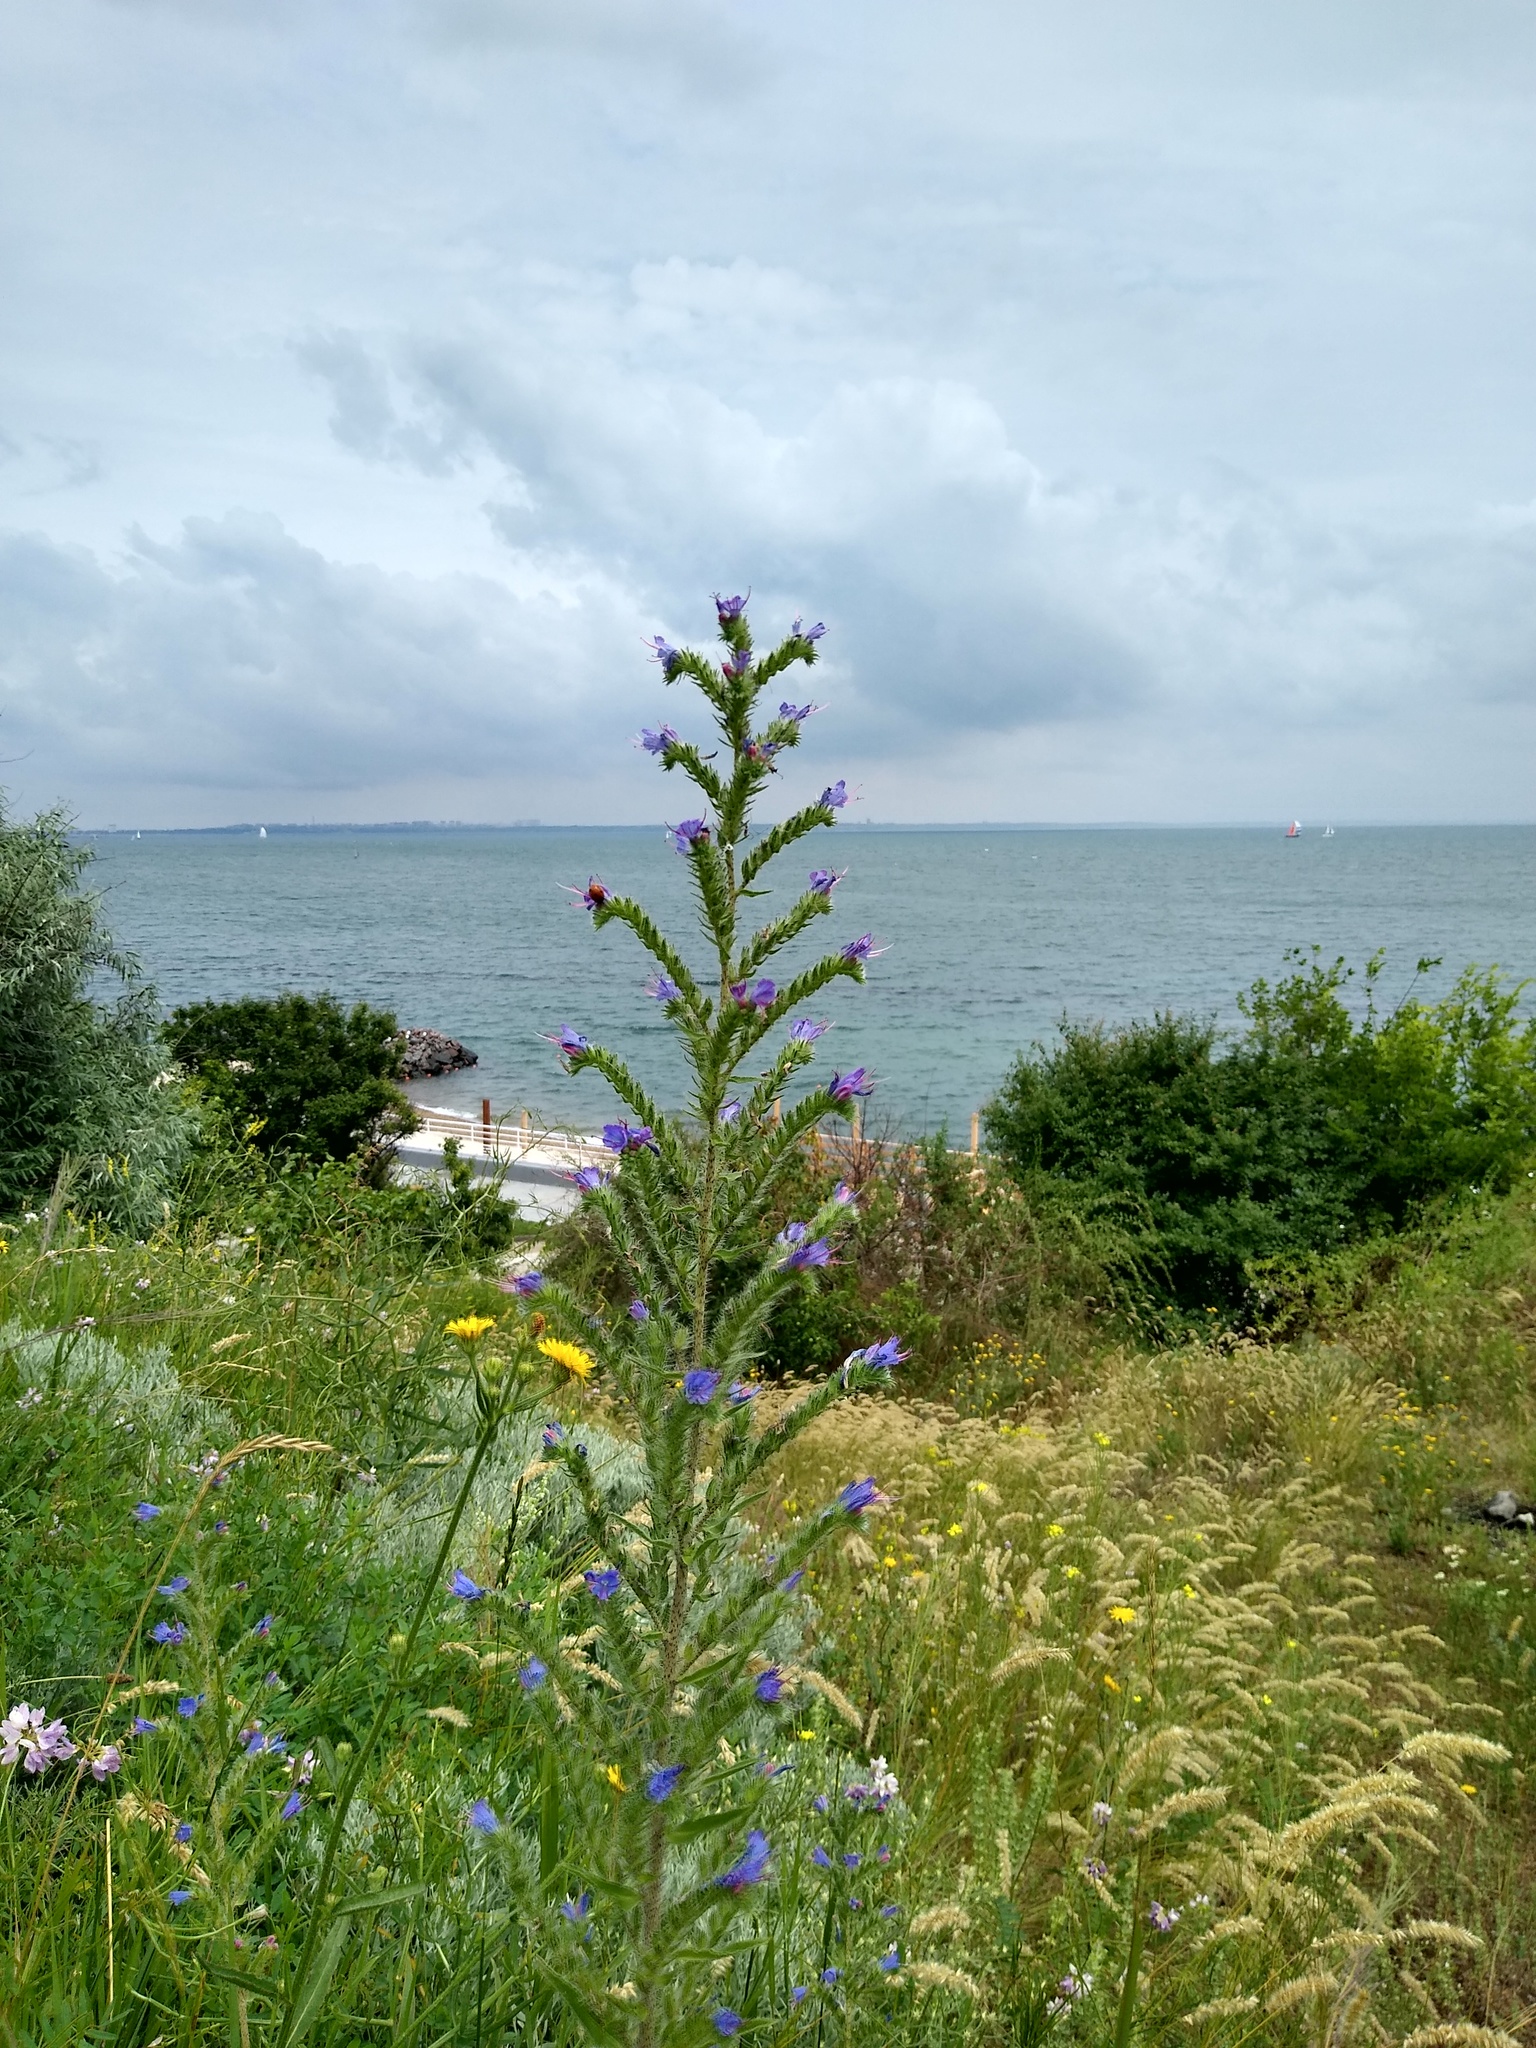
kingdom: Plantae
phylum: Tracheophyta
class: Magnoliopsida
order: Boraginales
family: Boraginaceae
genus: Echium
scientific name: Echium vulgare
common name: Common viper's bugloss
